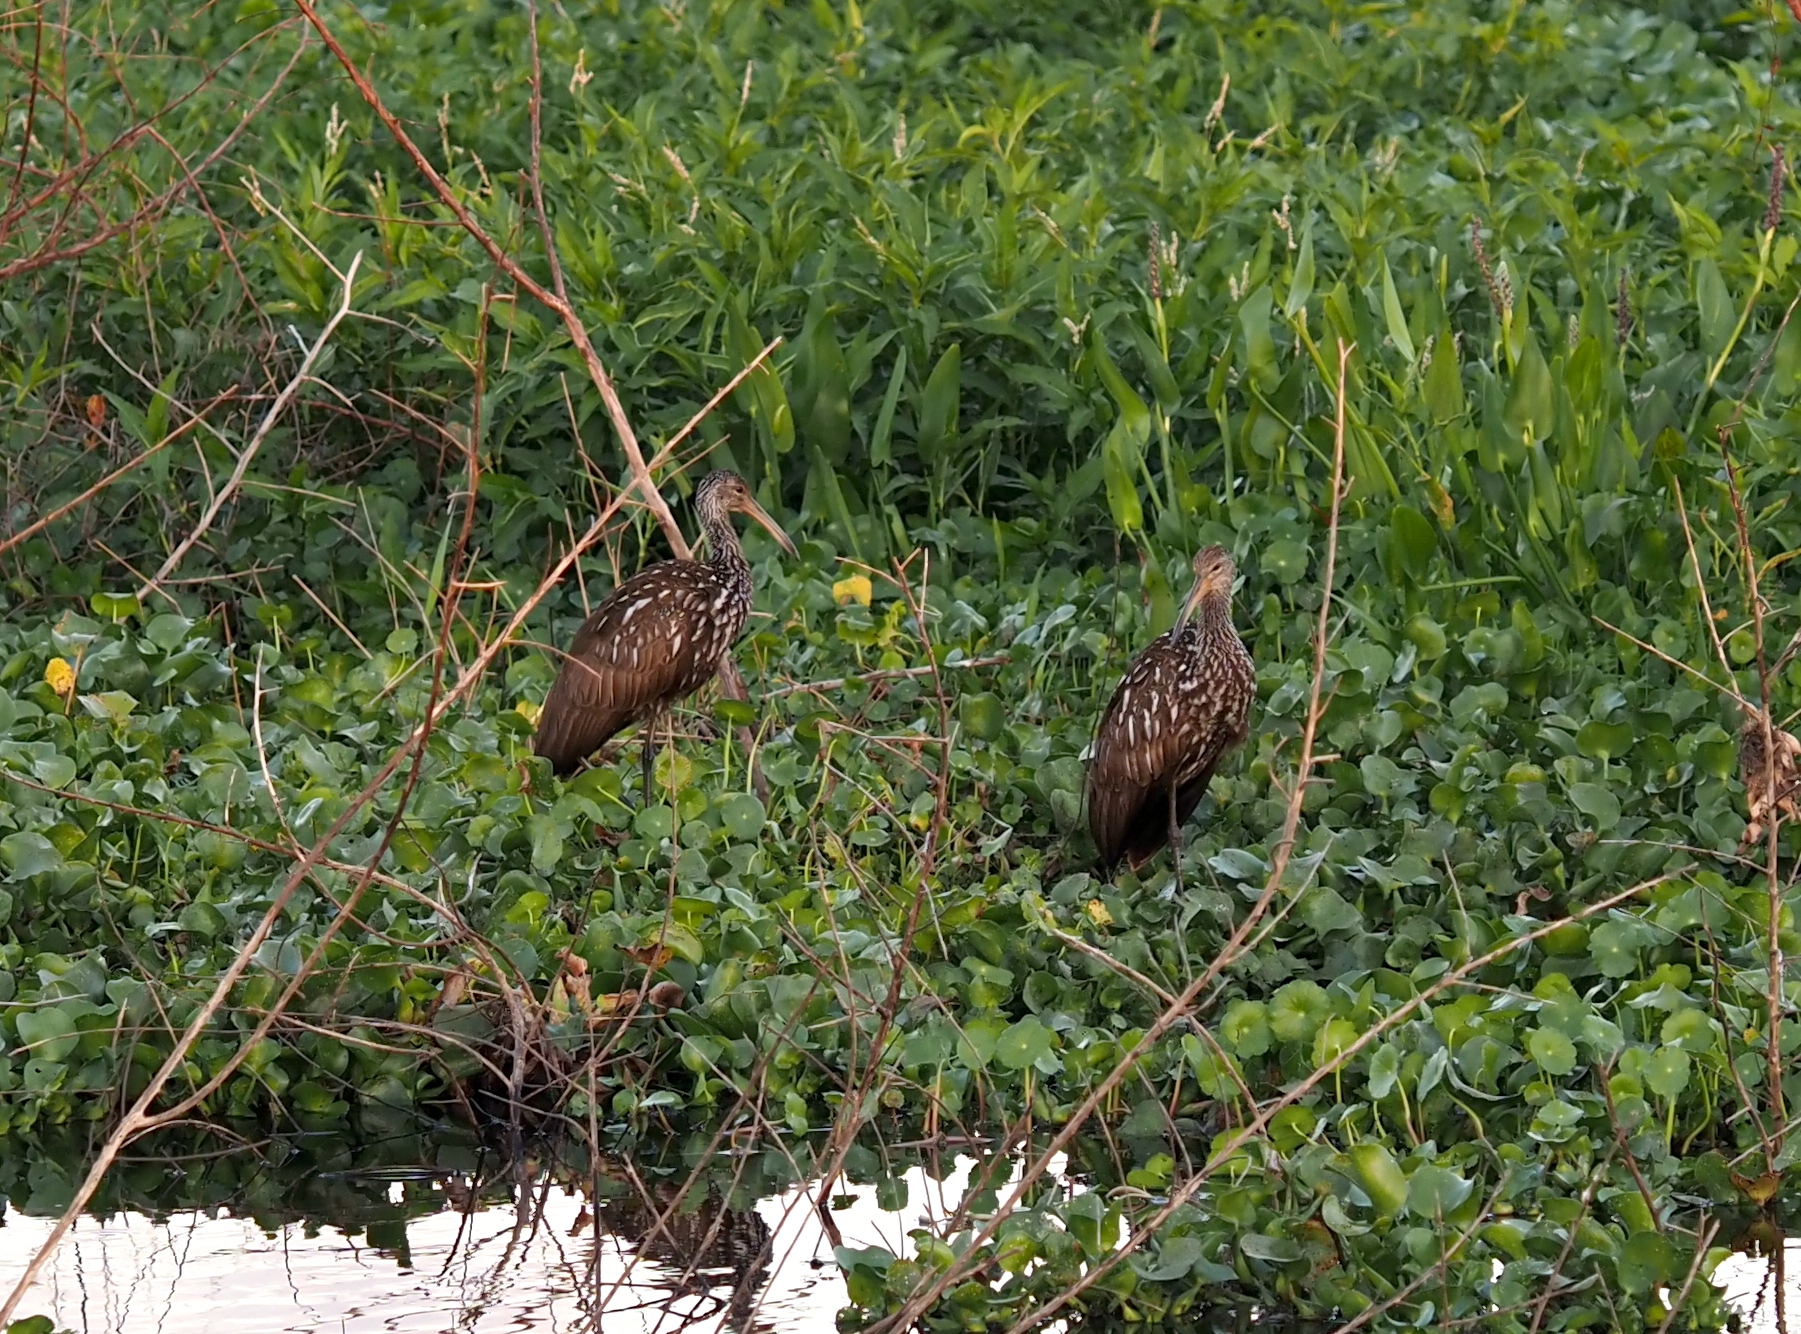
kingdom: Animalia
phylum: Chordata
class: Aves
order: Gruiformes
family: Aramidae
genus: Aramus
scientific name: Aramus guarauna
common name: Limpkin
